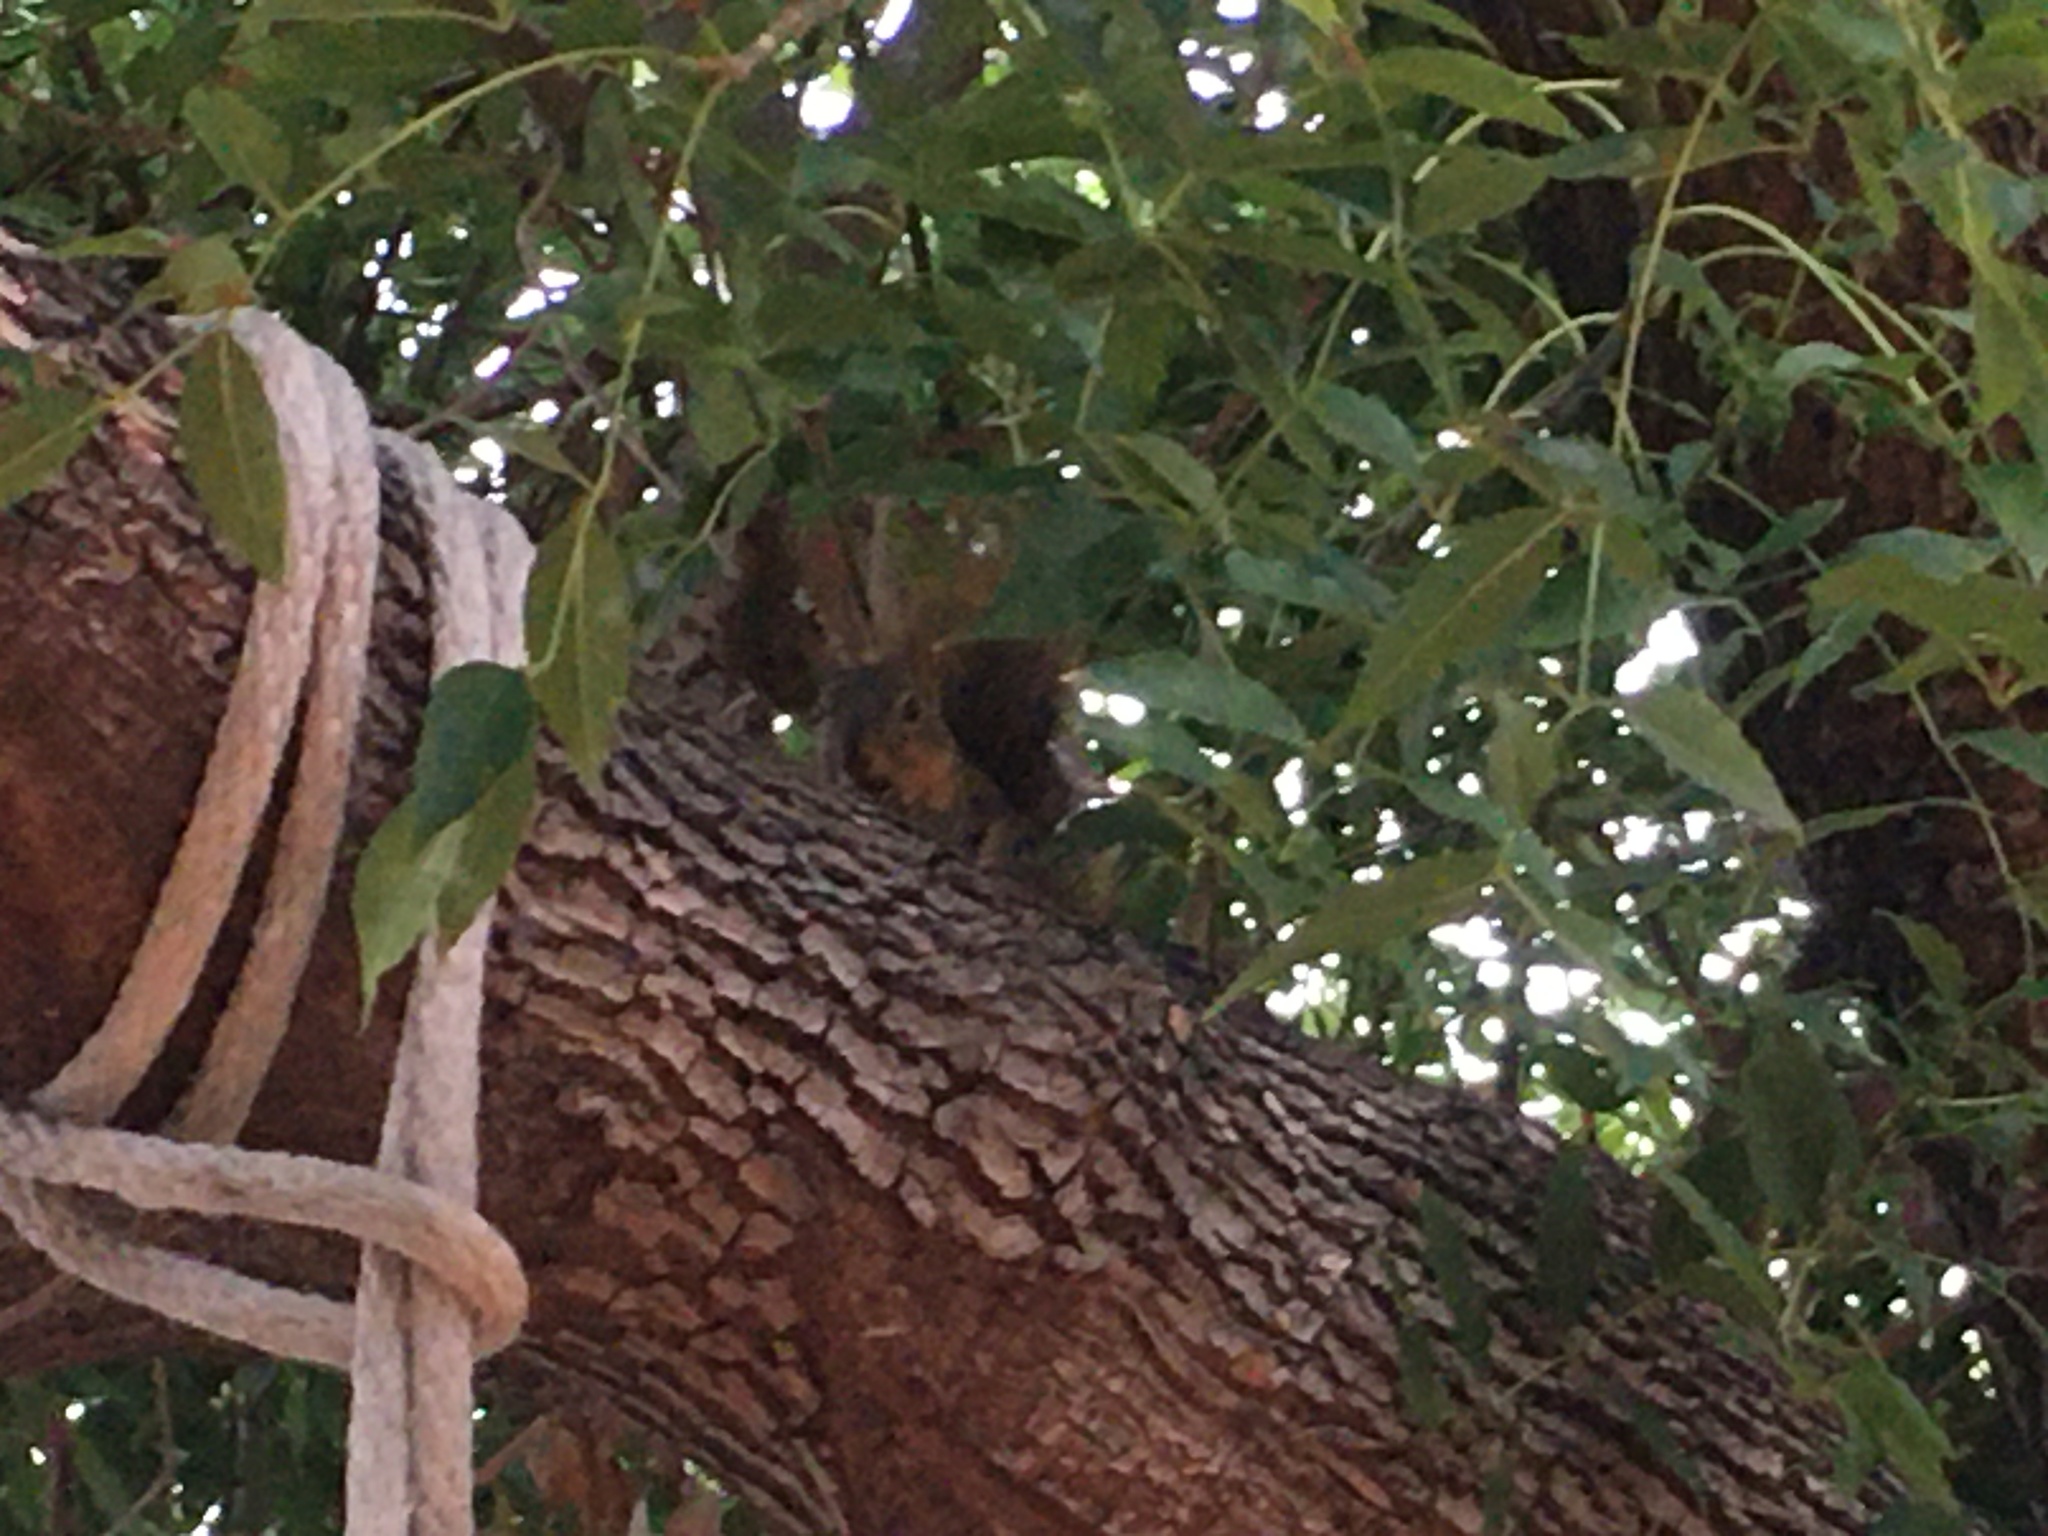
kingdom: Animalia
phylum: Chordata
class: Mammalia
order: Rodentia
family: Sciuridae
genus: Sciurus
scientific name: Sciurus niger
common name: Fox squirrel
